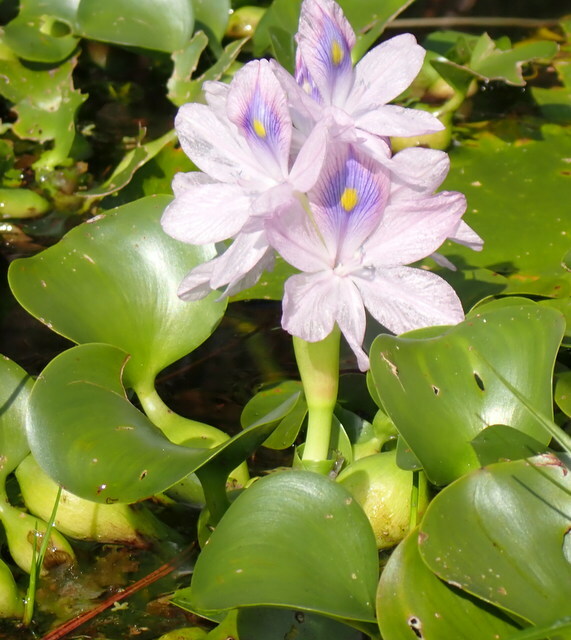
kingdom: Plantae
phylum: Tracheophyta
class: Liliopsida
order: Commelinales
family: Pontederiaceae
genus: Pontederia
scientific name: Pontederia crassipes
